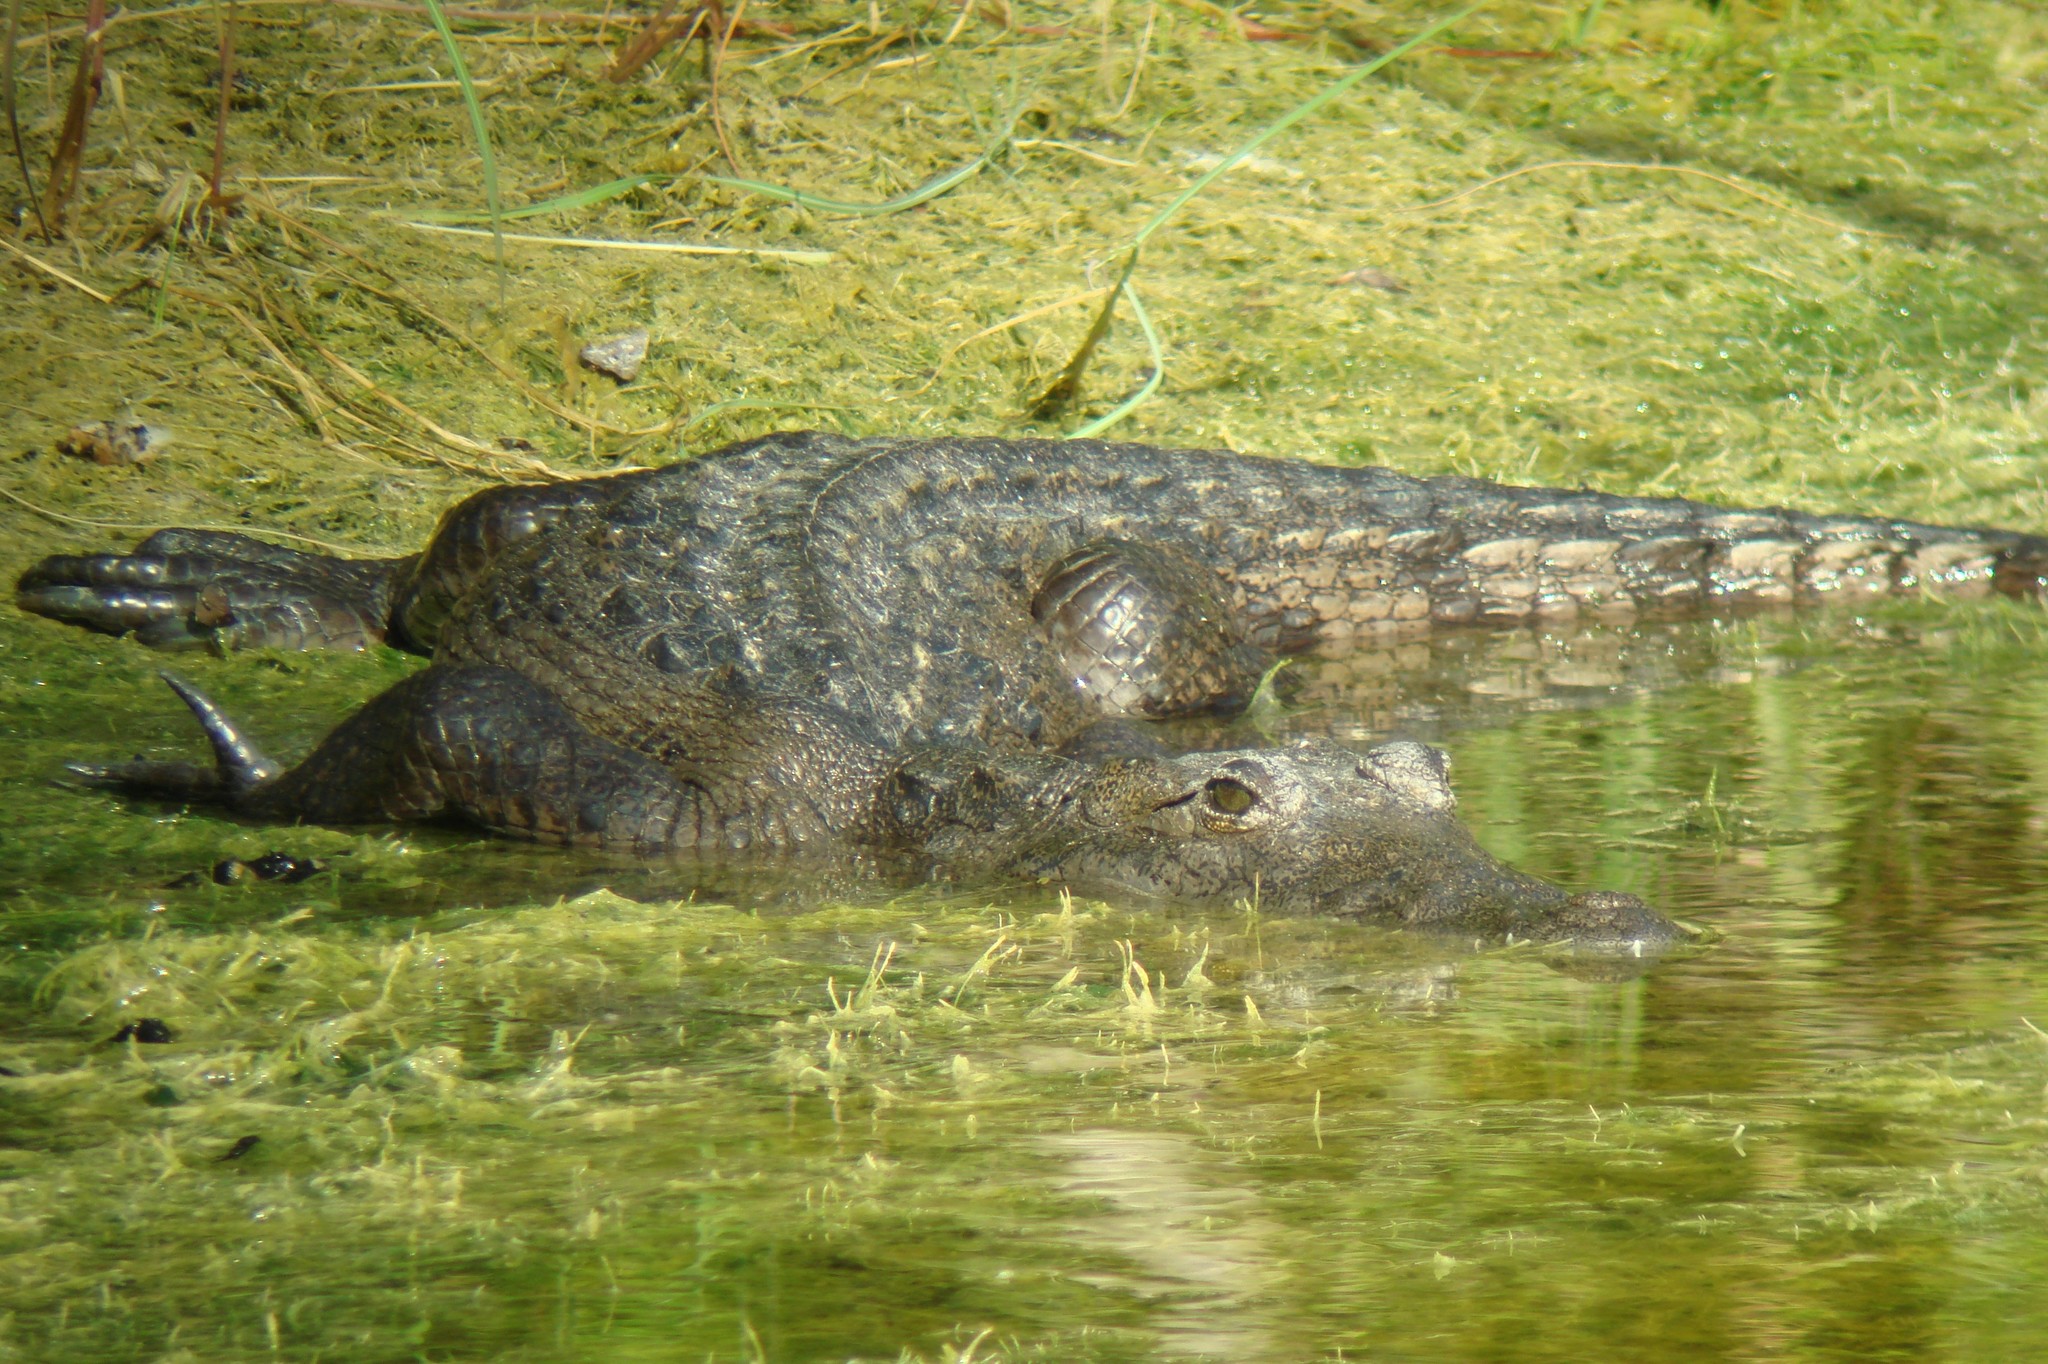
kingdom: Animalia
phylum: Chordata
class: Crocodylia
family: Crocodylidae
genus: Crocodylus
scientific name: Crocodylus acutus
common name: American crocodile
